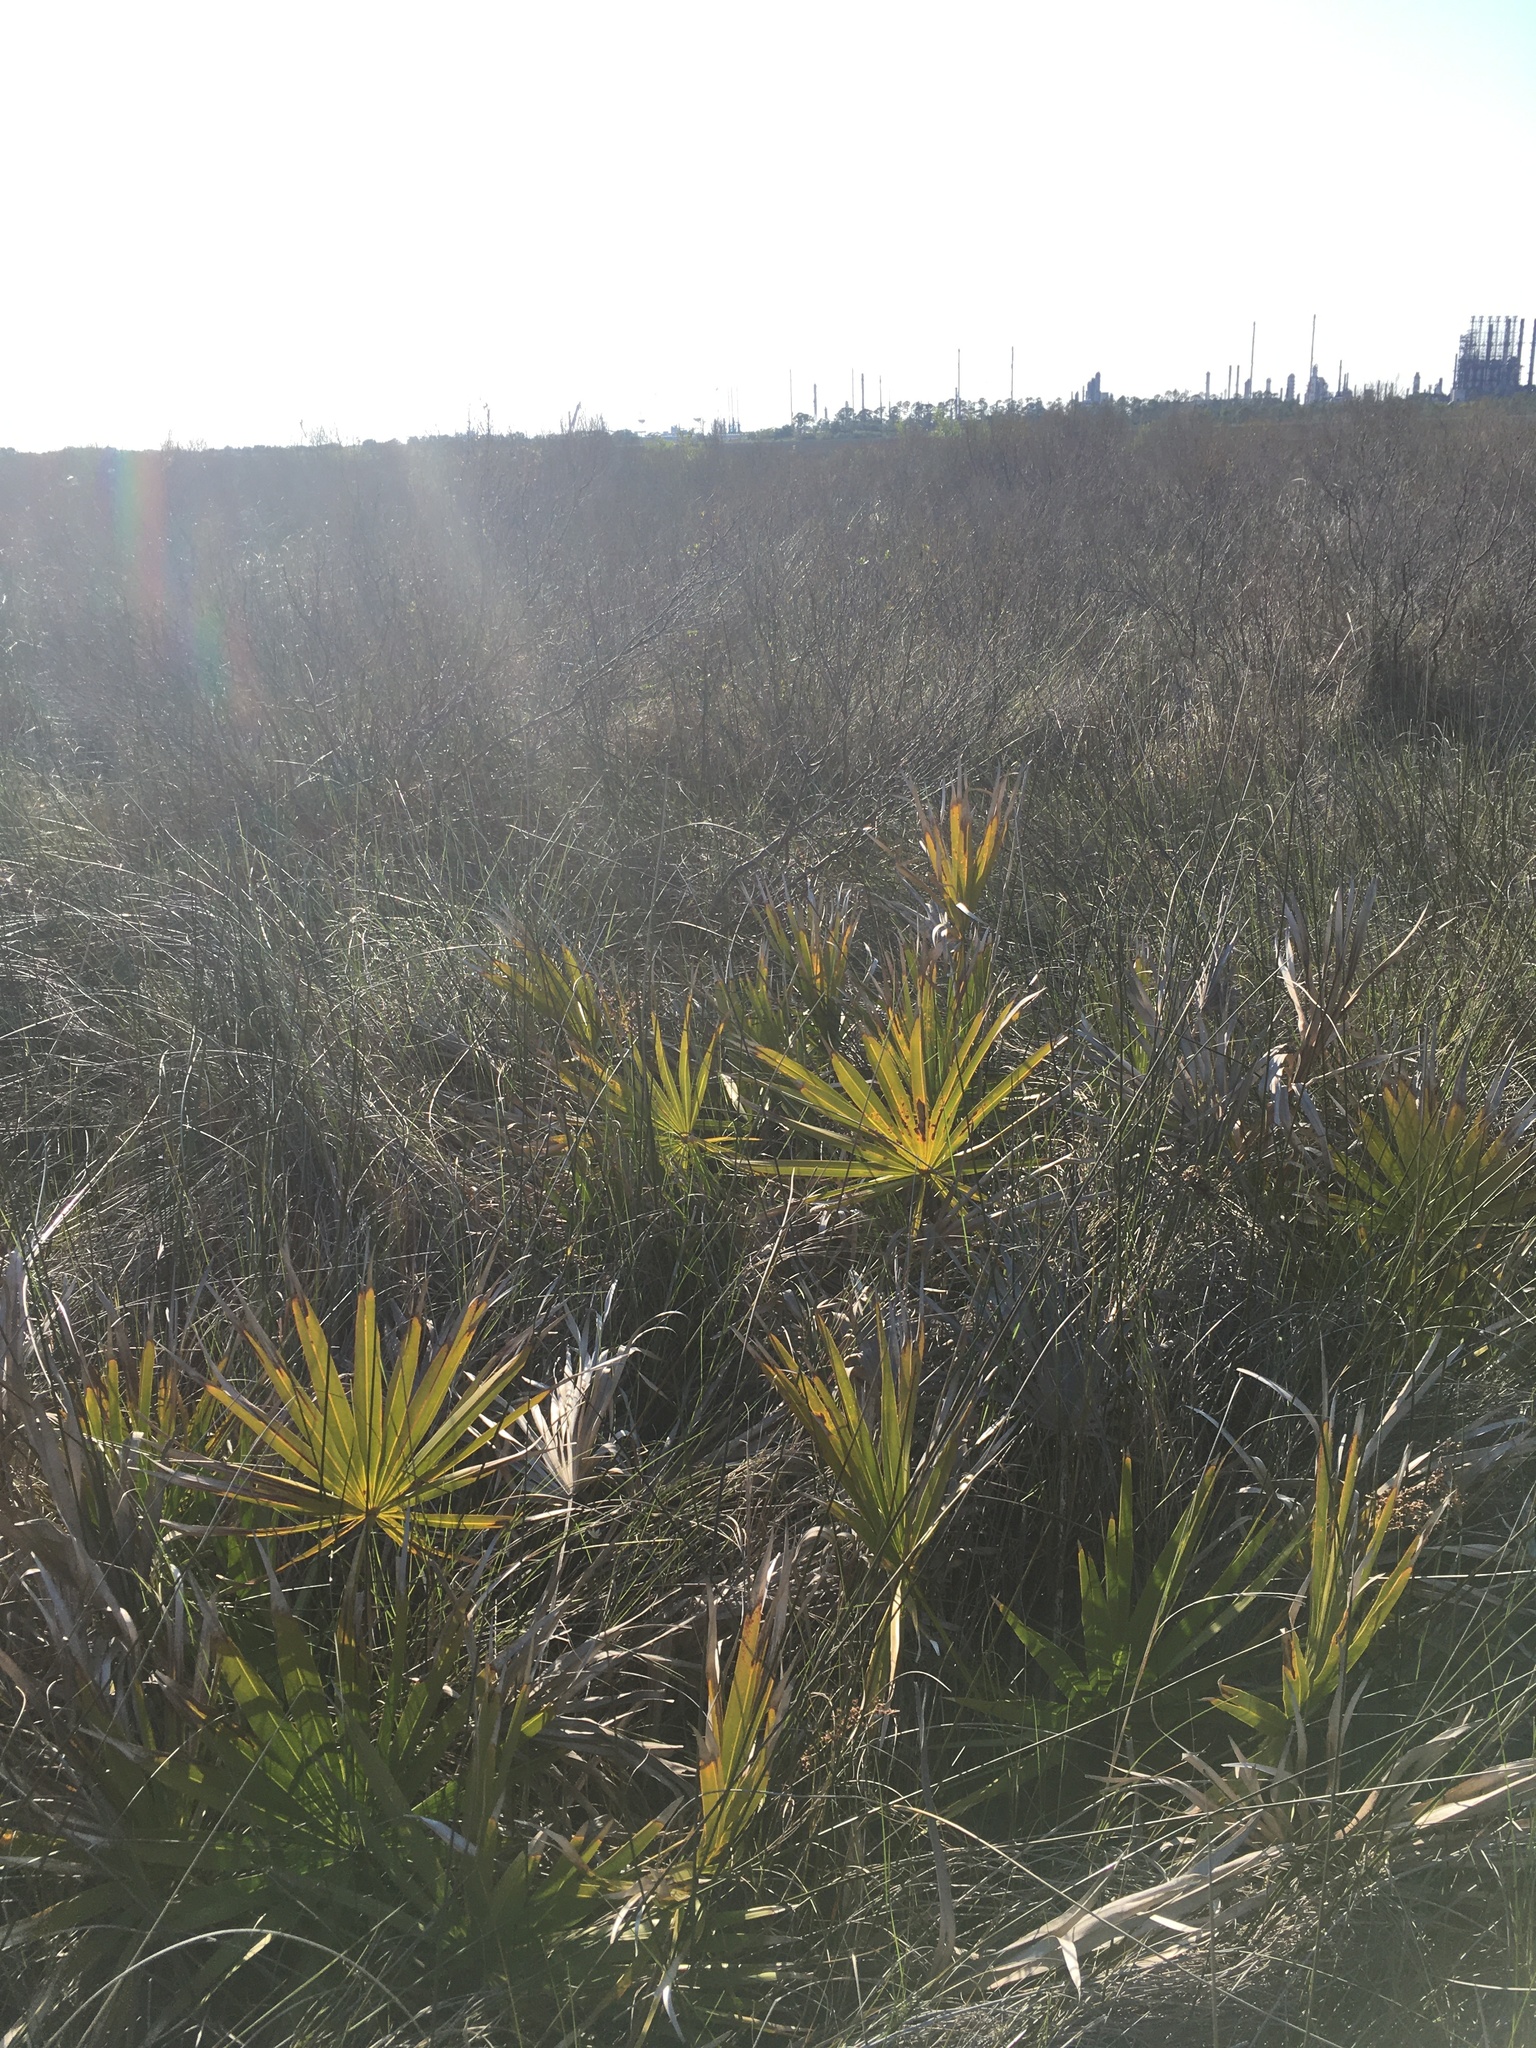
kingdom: Plantae
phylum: Tracheophyta
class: Liliopsida
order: Arecales
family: Arecaceae
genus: Serenoa
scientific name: Serenoa repens
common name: Saw-palmetto
